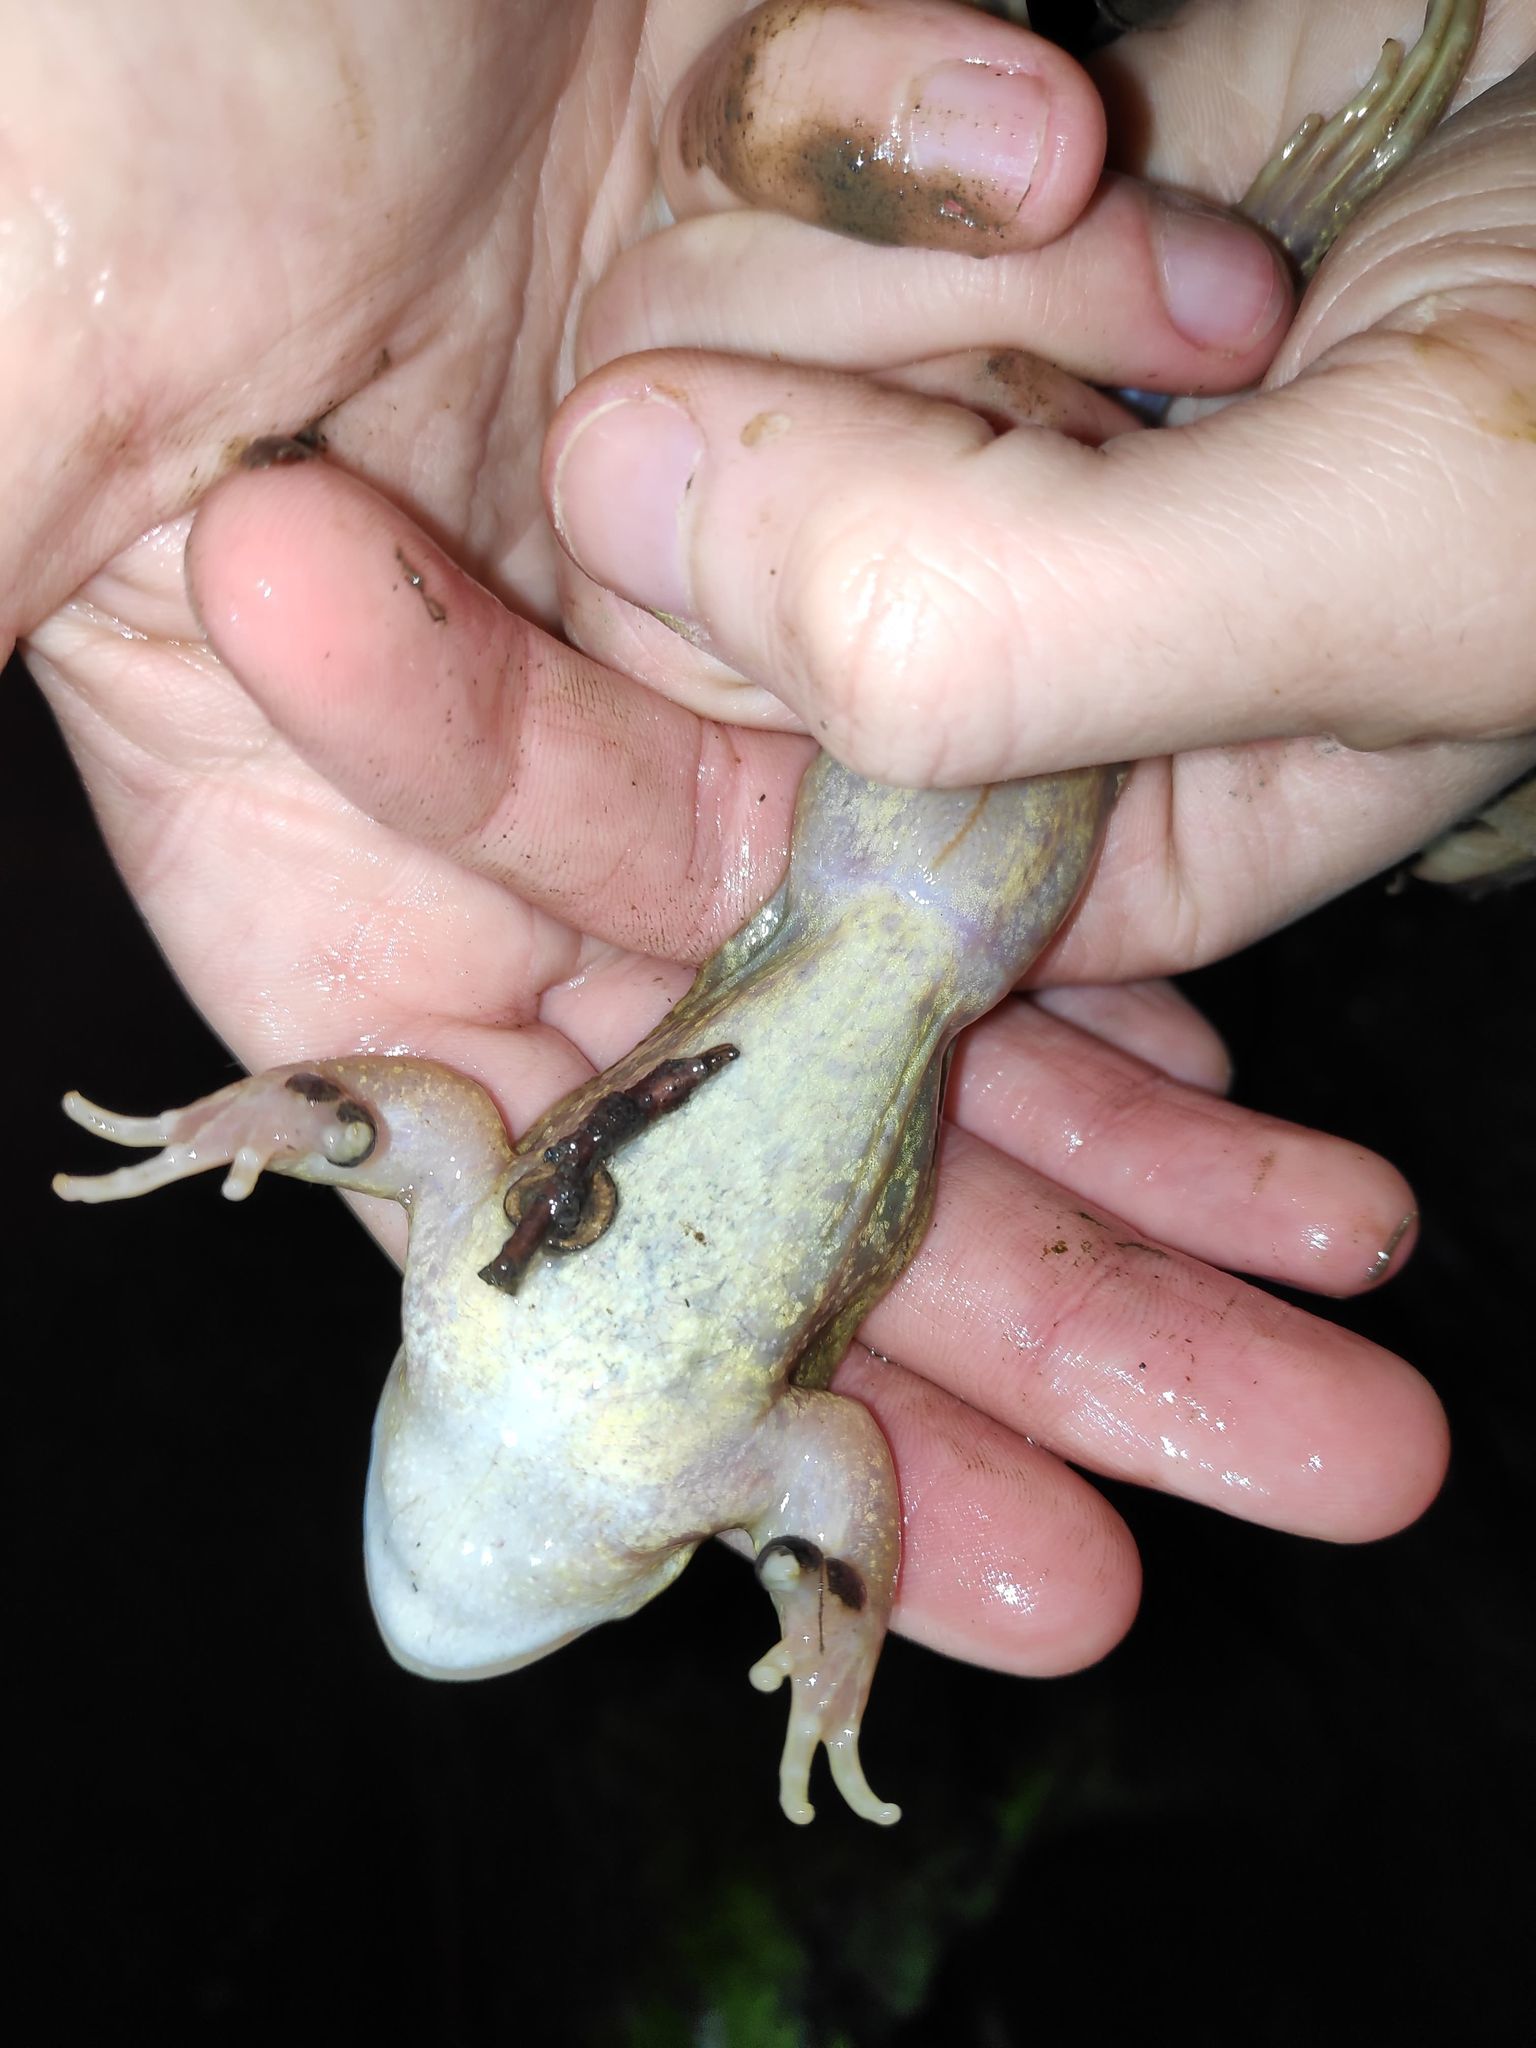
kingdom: Animalia
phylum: Chordata
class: Amphibia
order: Anura
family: Ranidae
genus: Rana
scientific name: Rana temporaria
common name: Common frog
